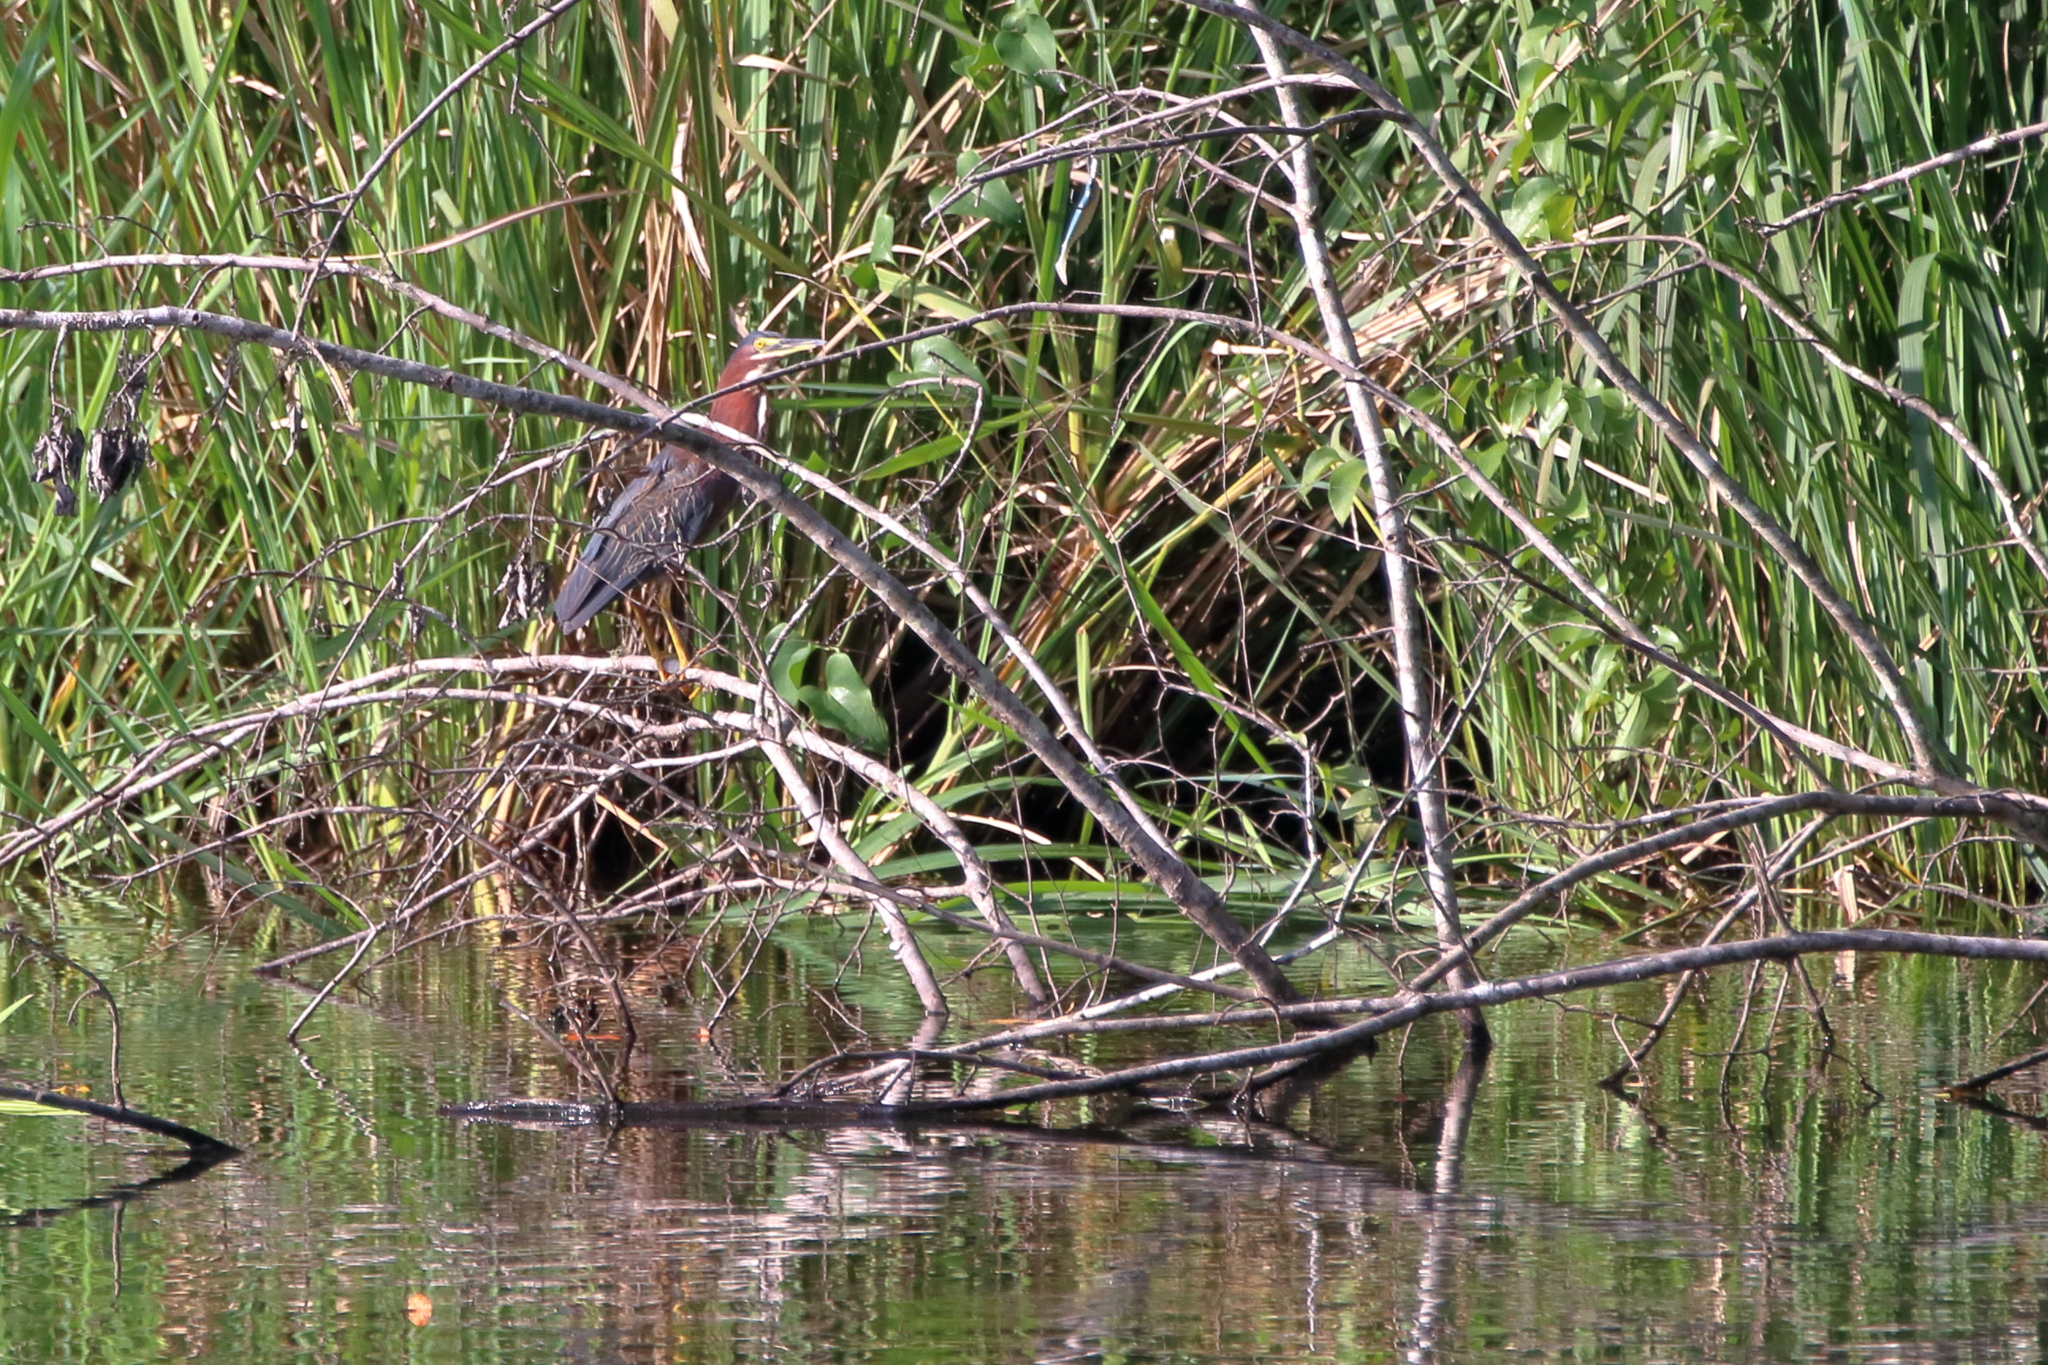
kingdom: Animalia
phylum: Chordata
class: Aves
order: Pelecaniformes
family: Ardeidae
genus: Butorides
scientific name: Butorides virescens
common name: Green heron
